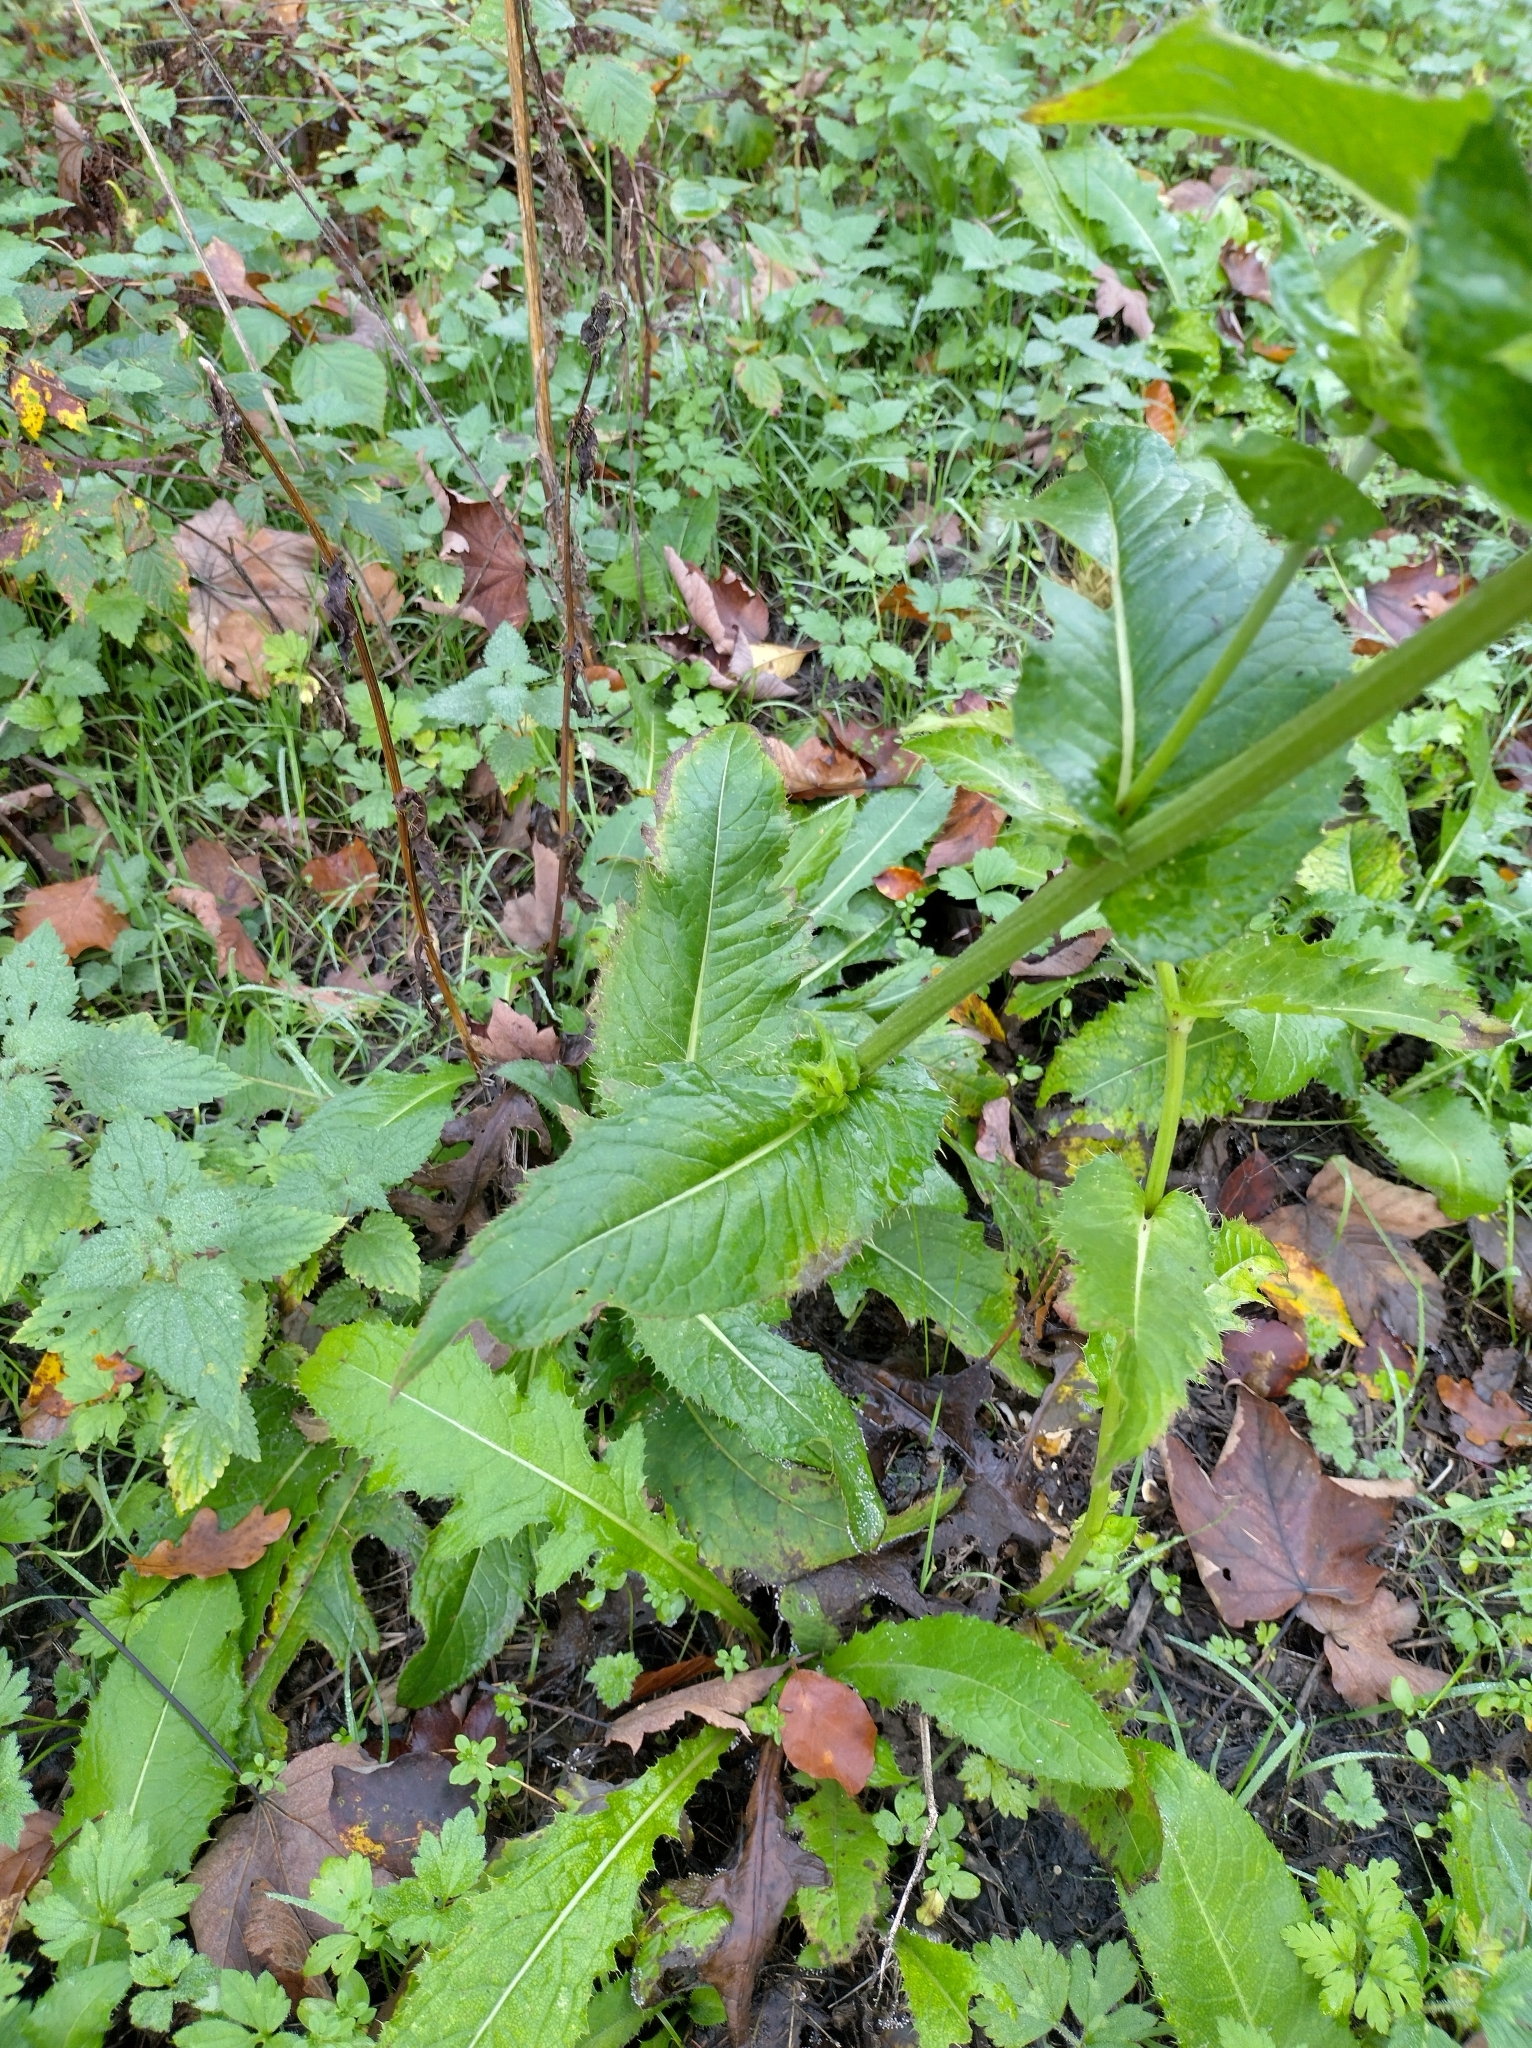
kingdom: Plantae
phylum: Tracheophyta
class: Magnoliopsida
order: Asterales
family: Asteraceae
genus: Cirsium
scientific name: Cirsium oleraceum
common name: Cabbage thistle
